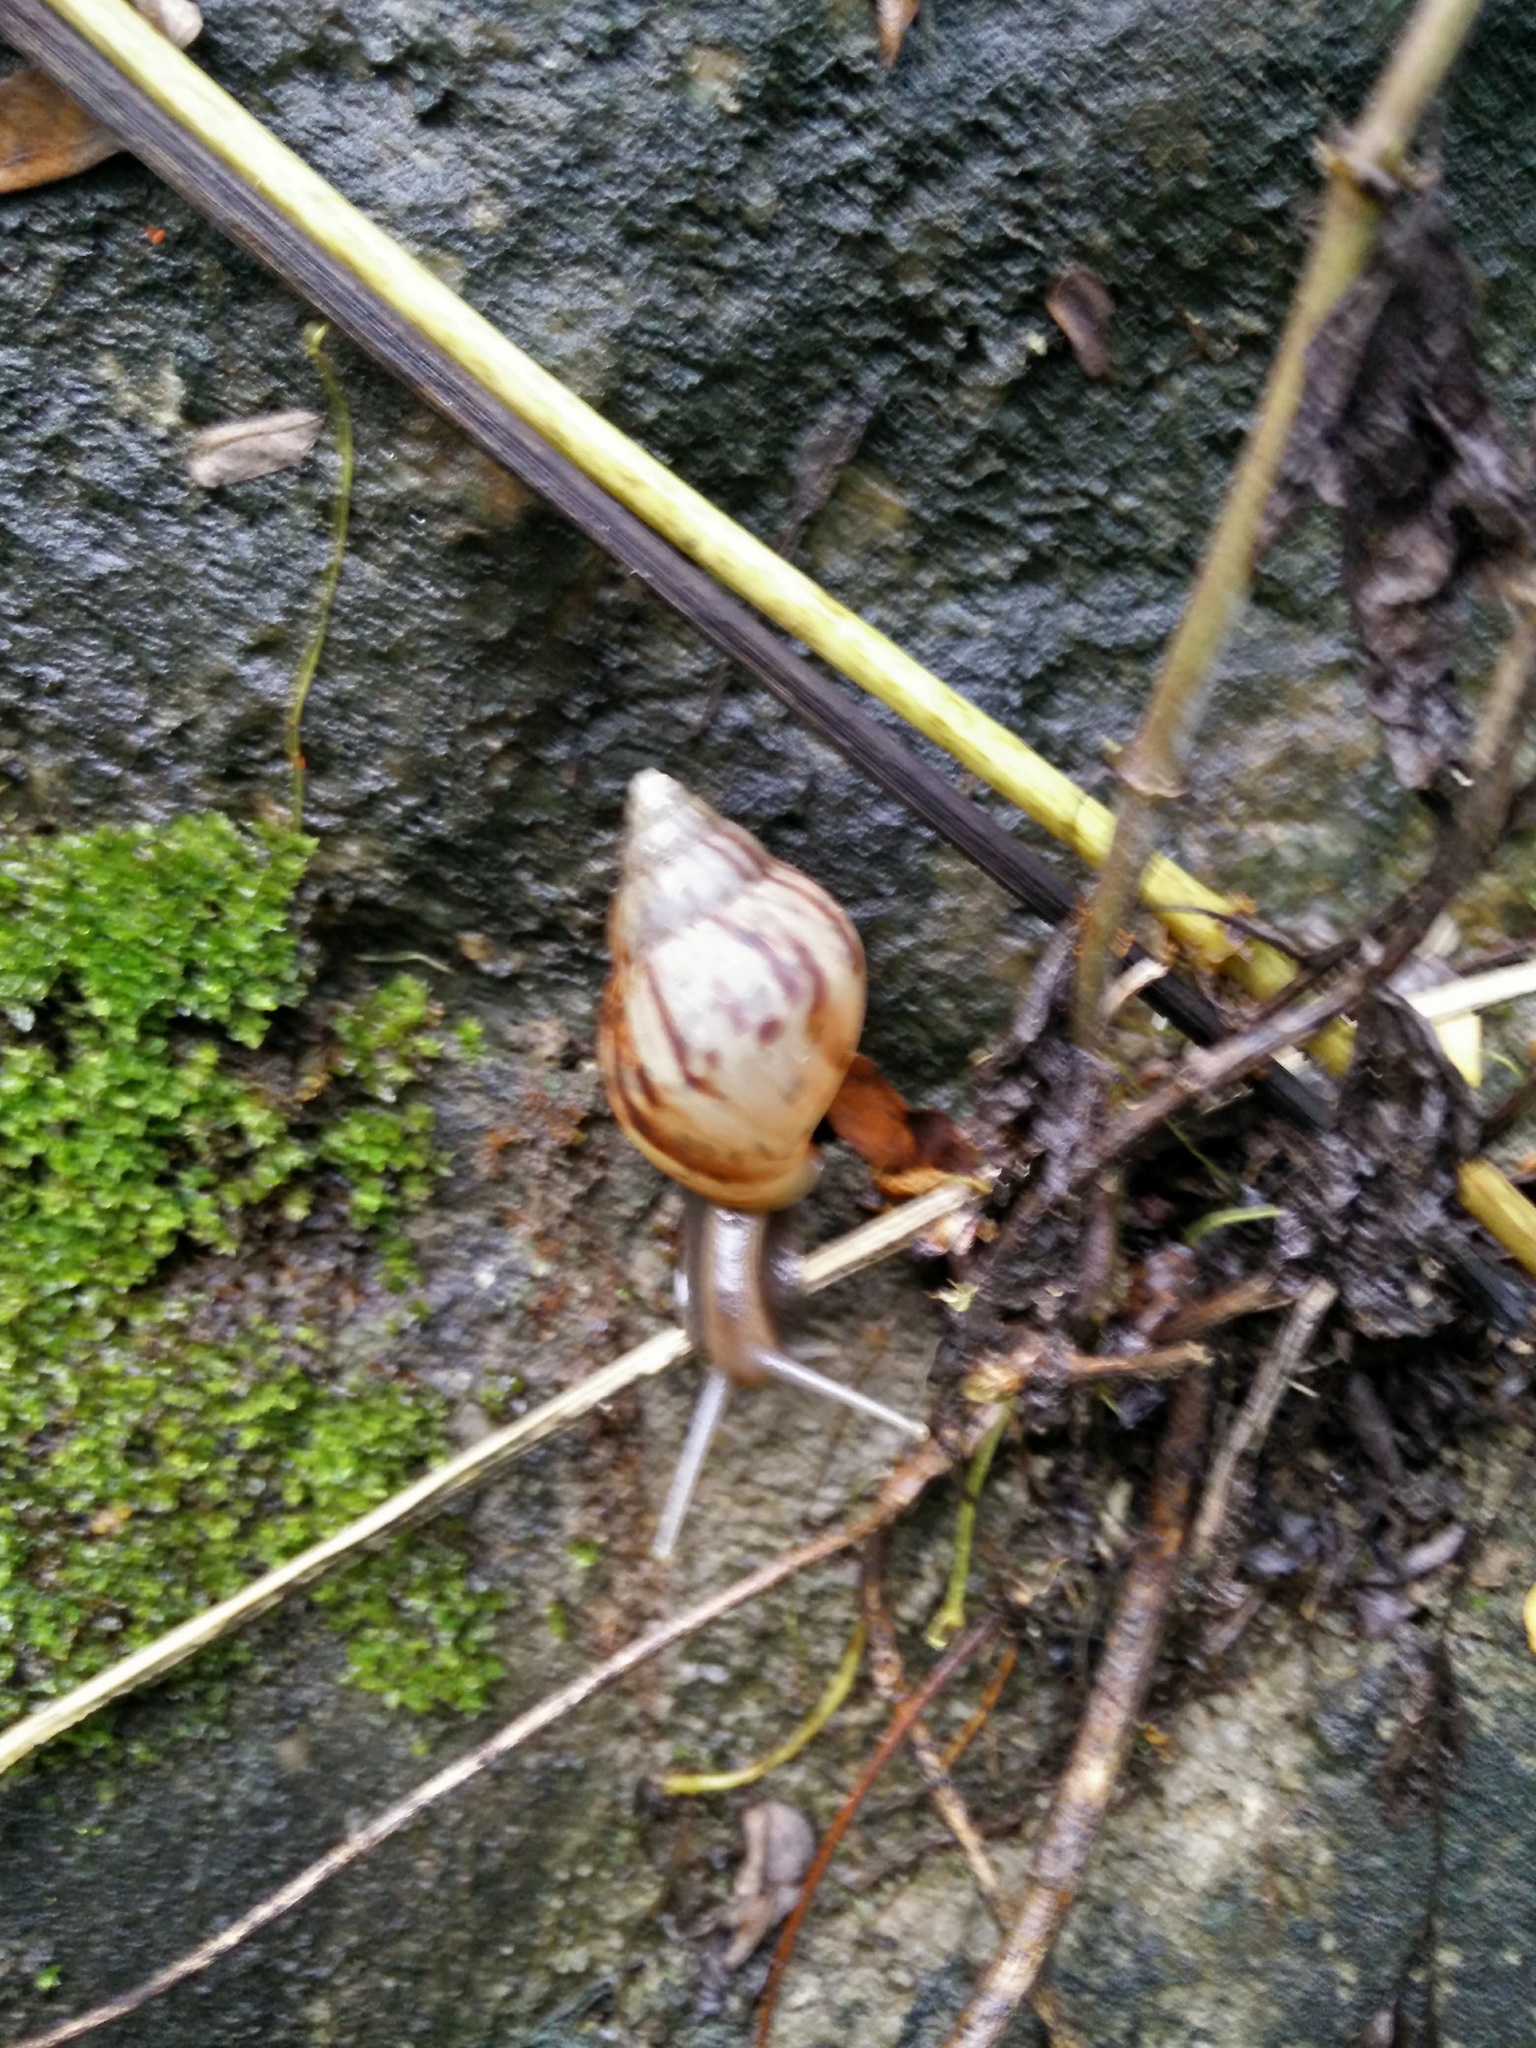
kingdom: Animalia
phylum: Mollusca
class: Gastropoda
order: Stylommatophora
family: Achatinidae
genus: Lissachatina
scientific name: Lissachatina fulica
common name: Giant african snail
